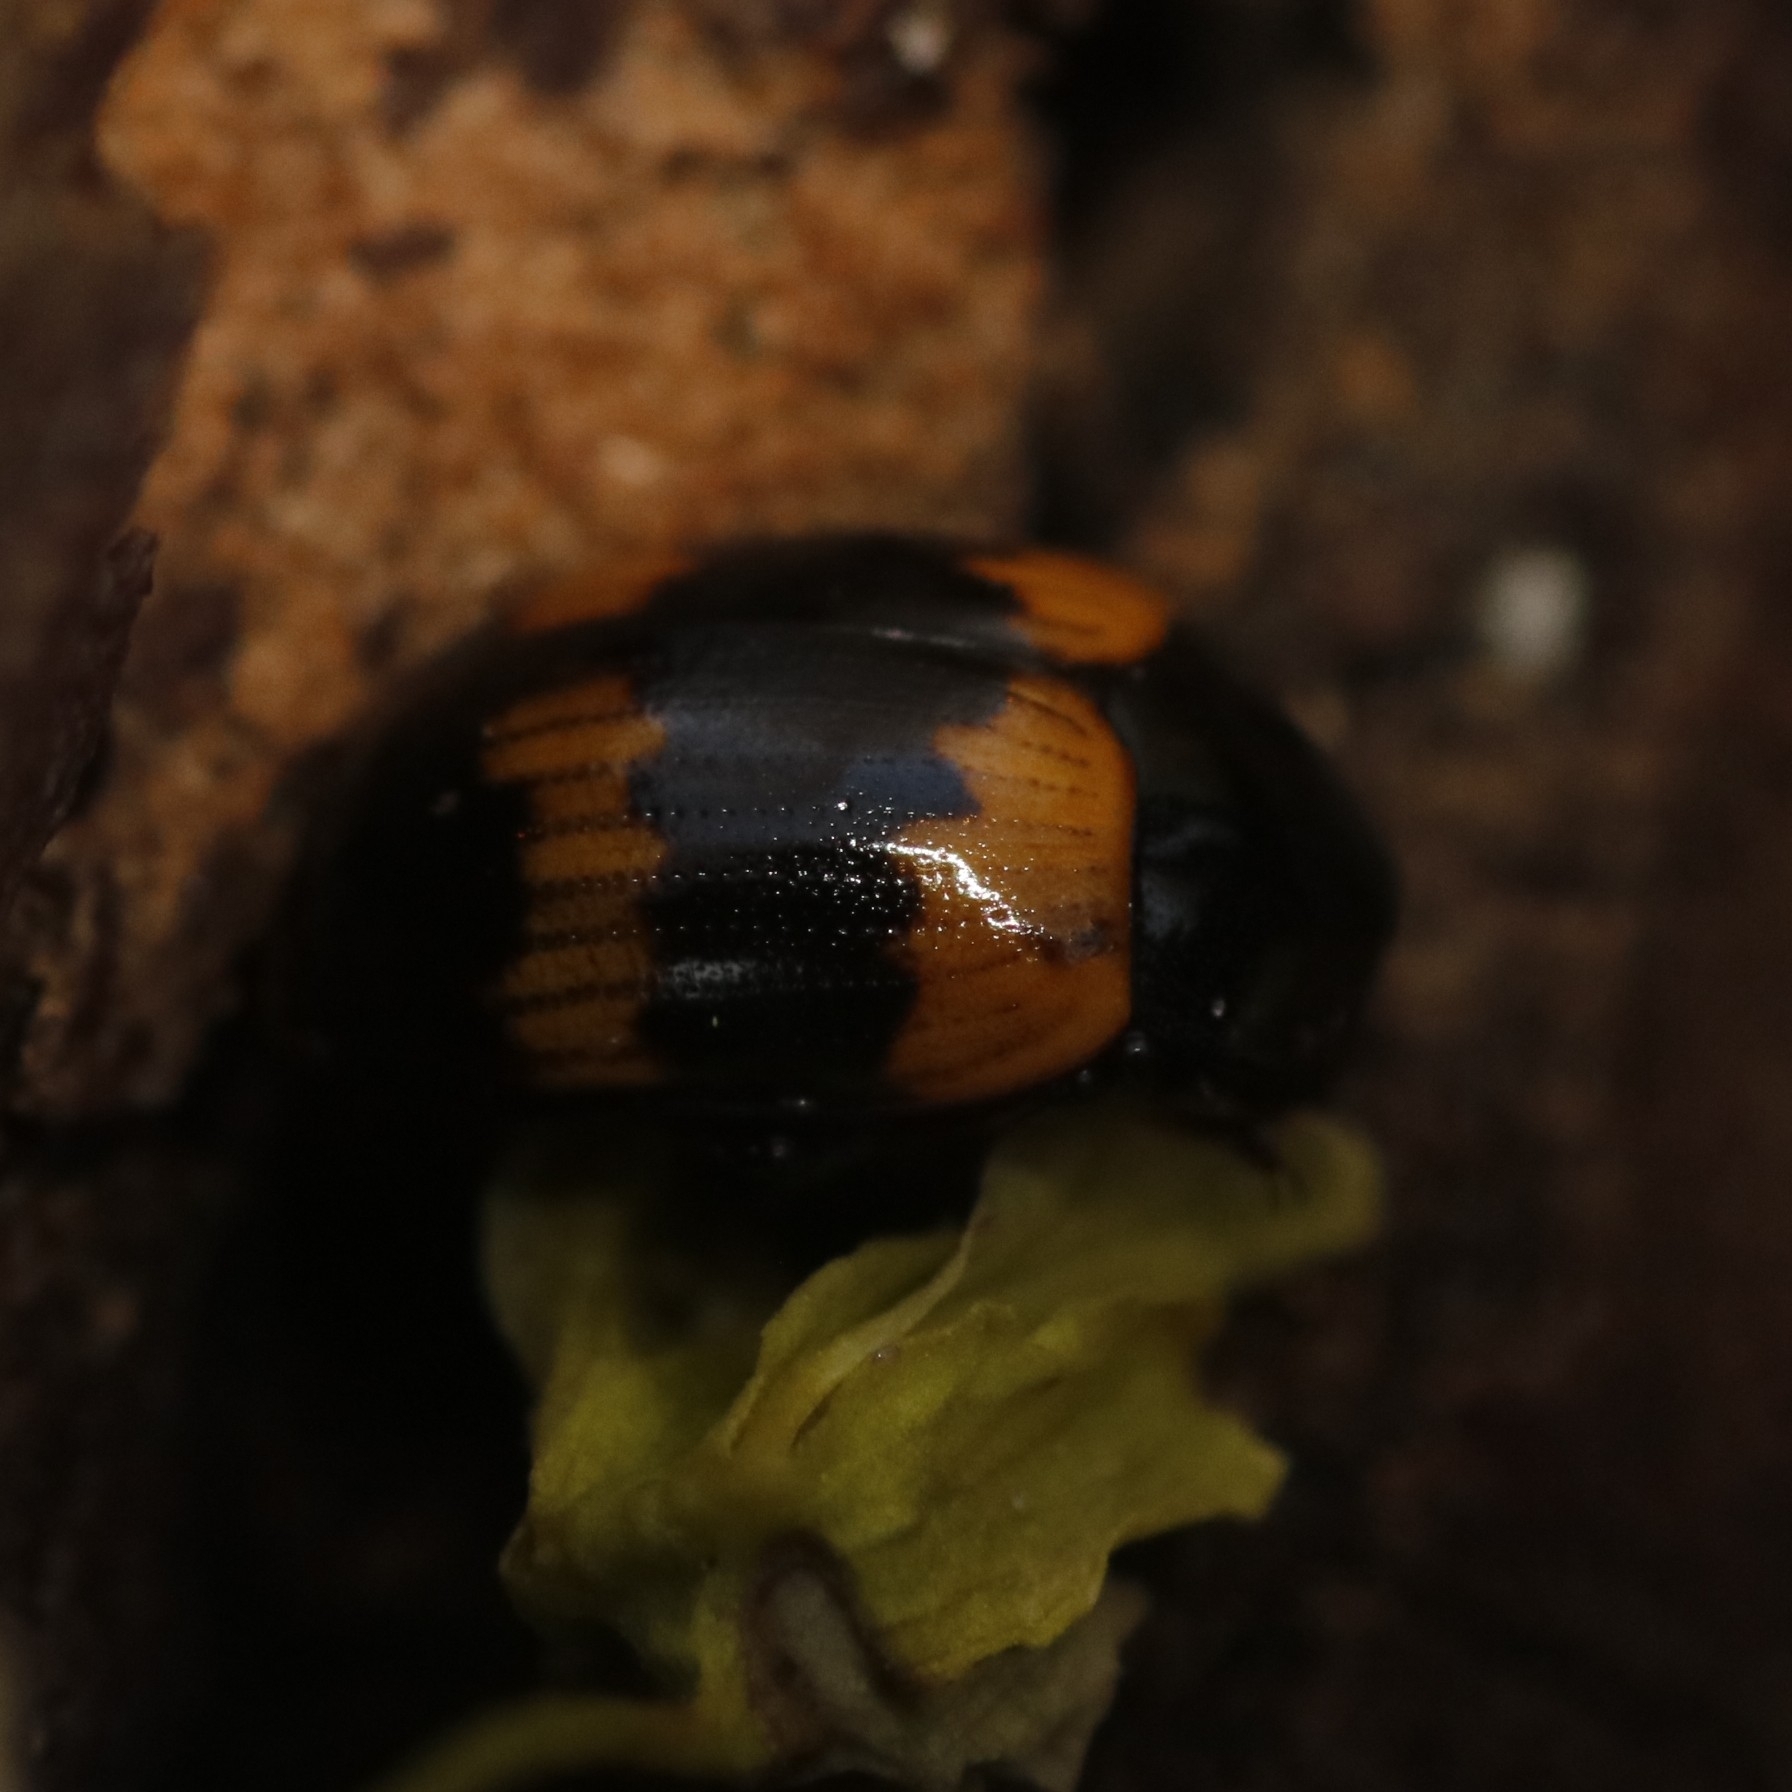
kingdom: Animalia
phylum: Arthropoda
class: Insecta
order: Coleoptera
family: Tenebrionidae
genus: Diaperis
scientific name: Diaperis boleti
